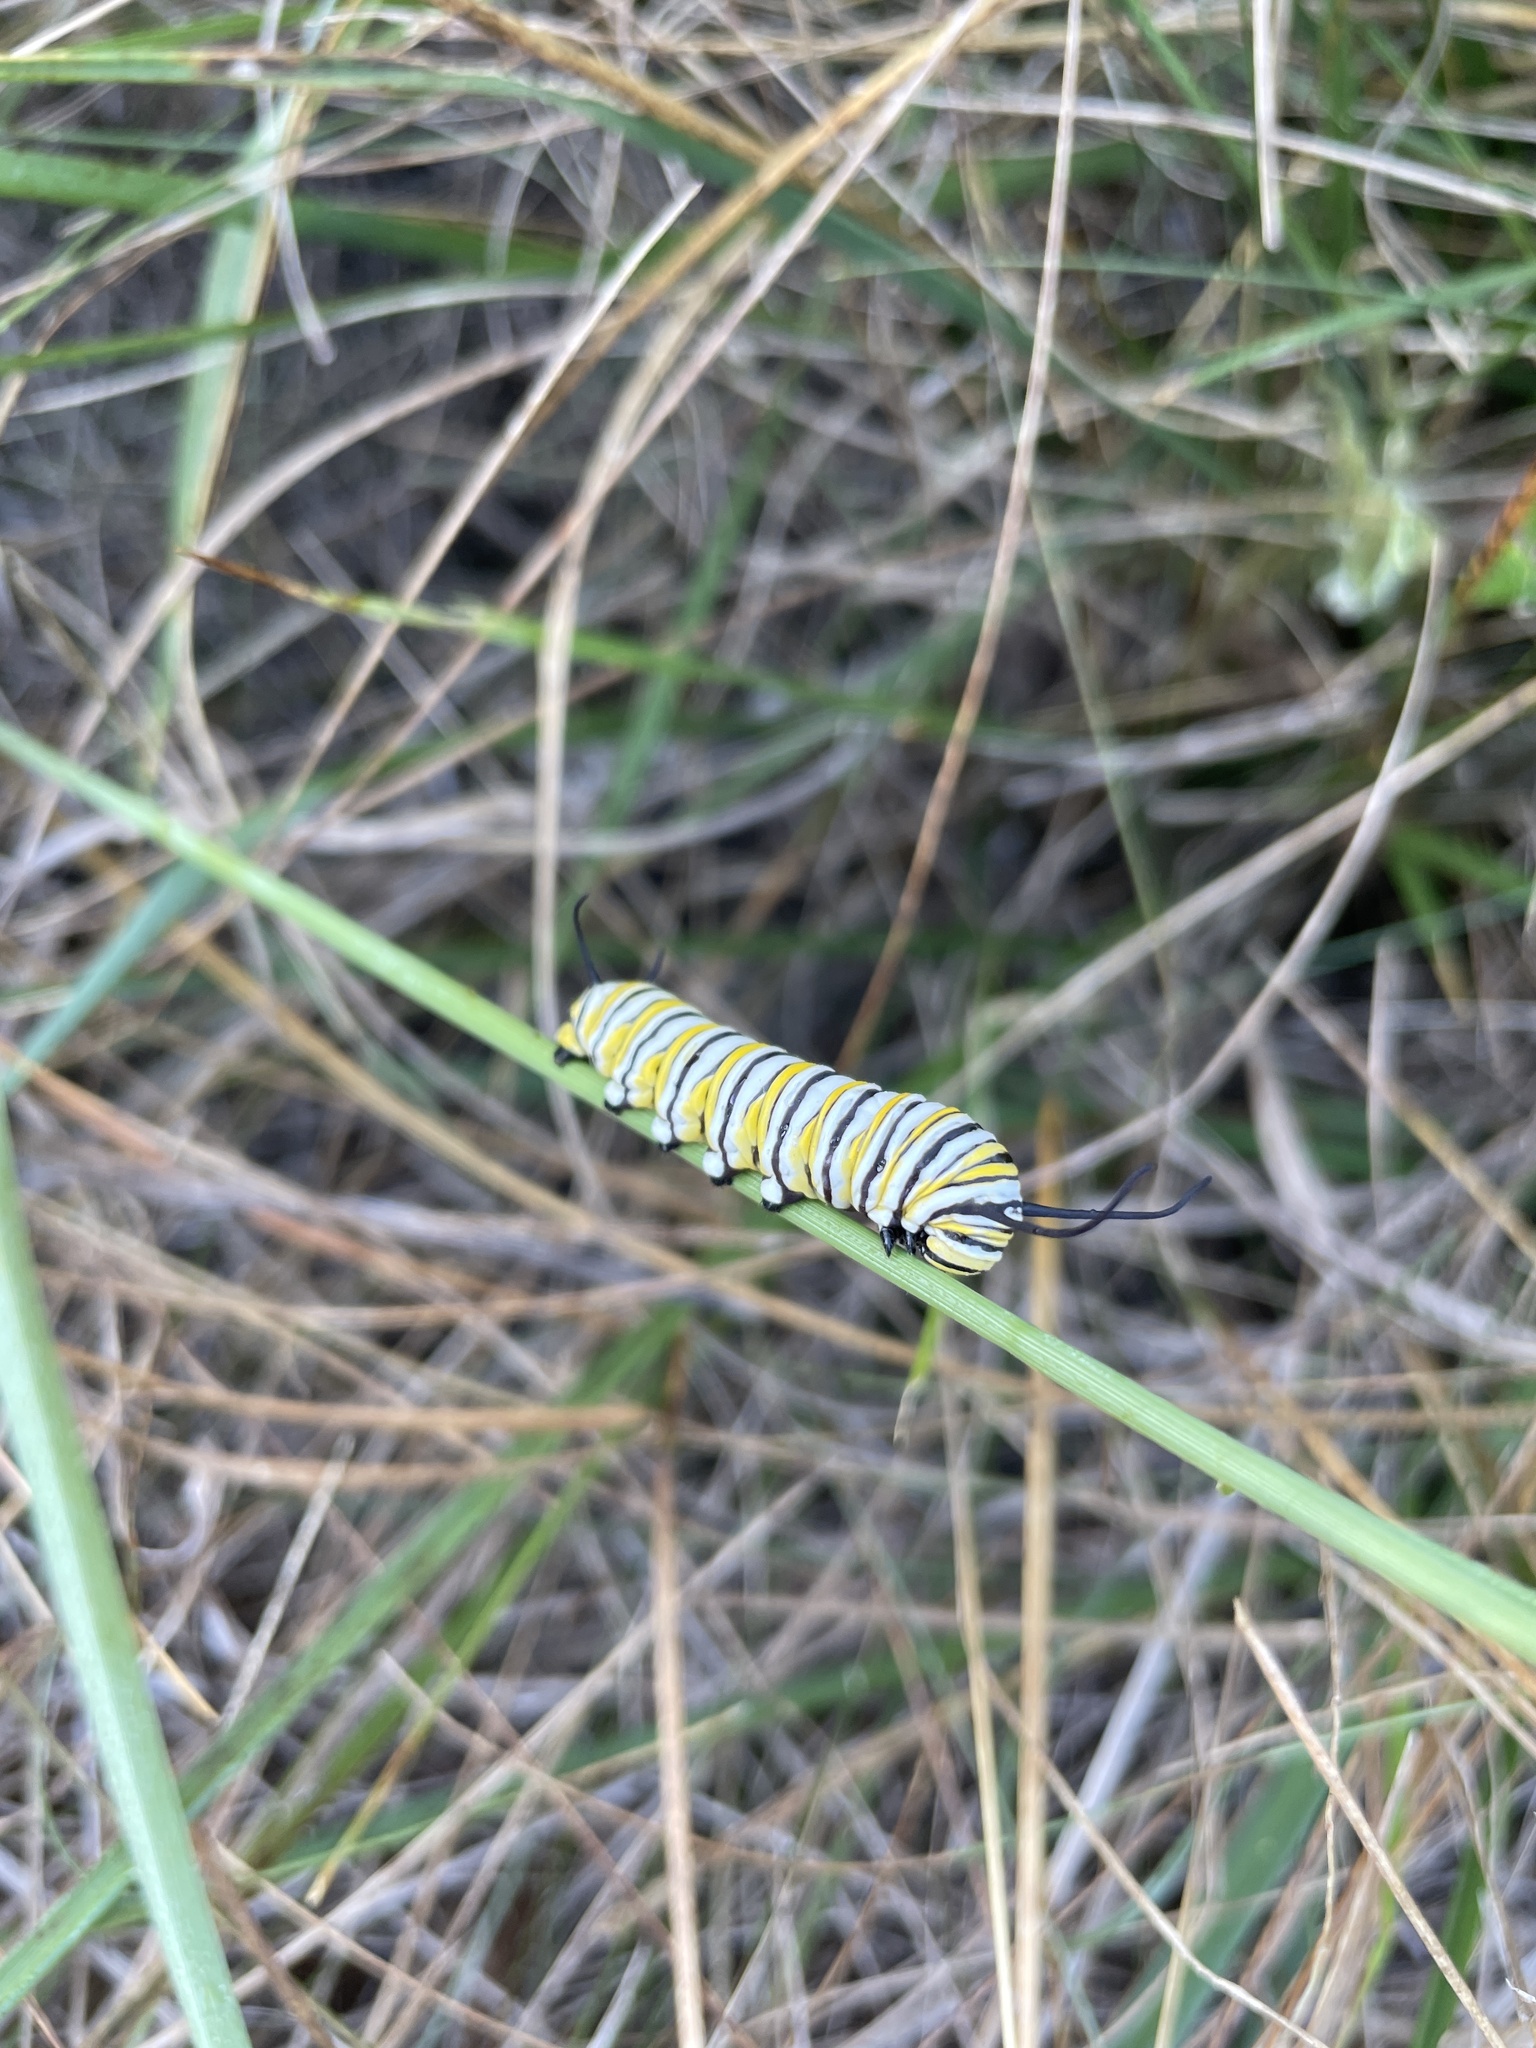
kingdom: Animalia
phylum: Arthropoda
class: Insecta
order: Lepidoptera
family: Nymphalidae
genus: Danaus
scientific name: Danaus plexippus
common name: Monarch
